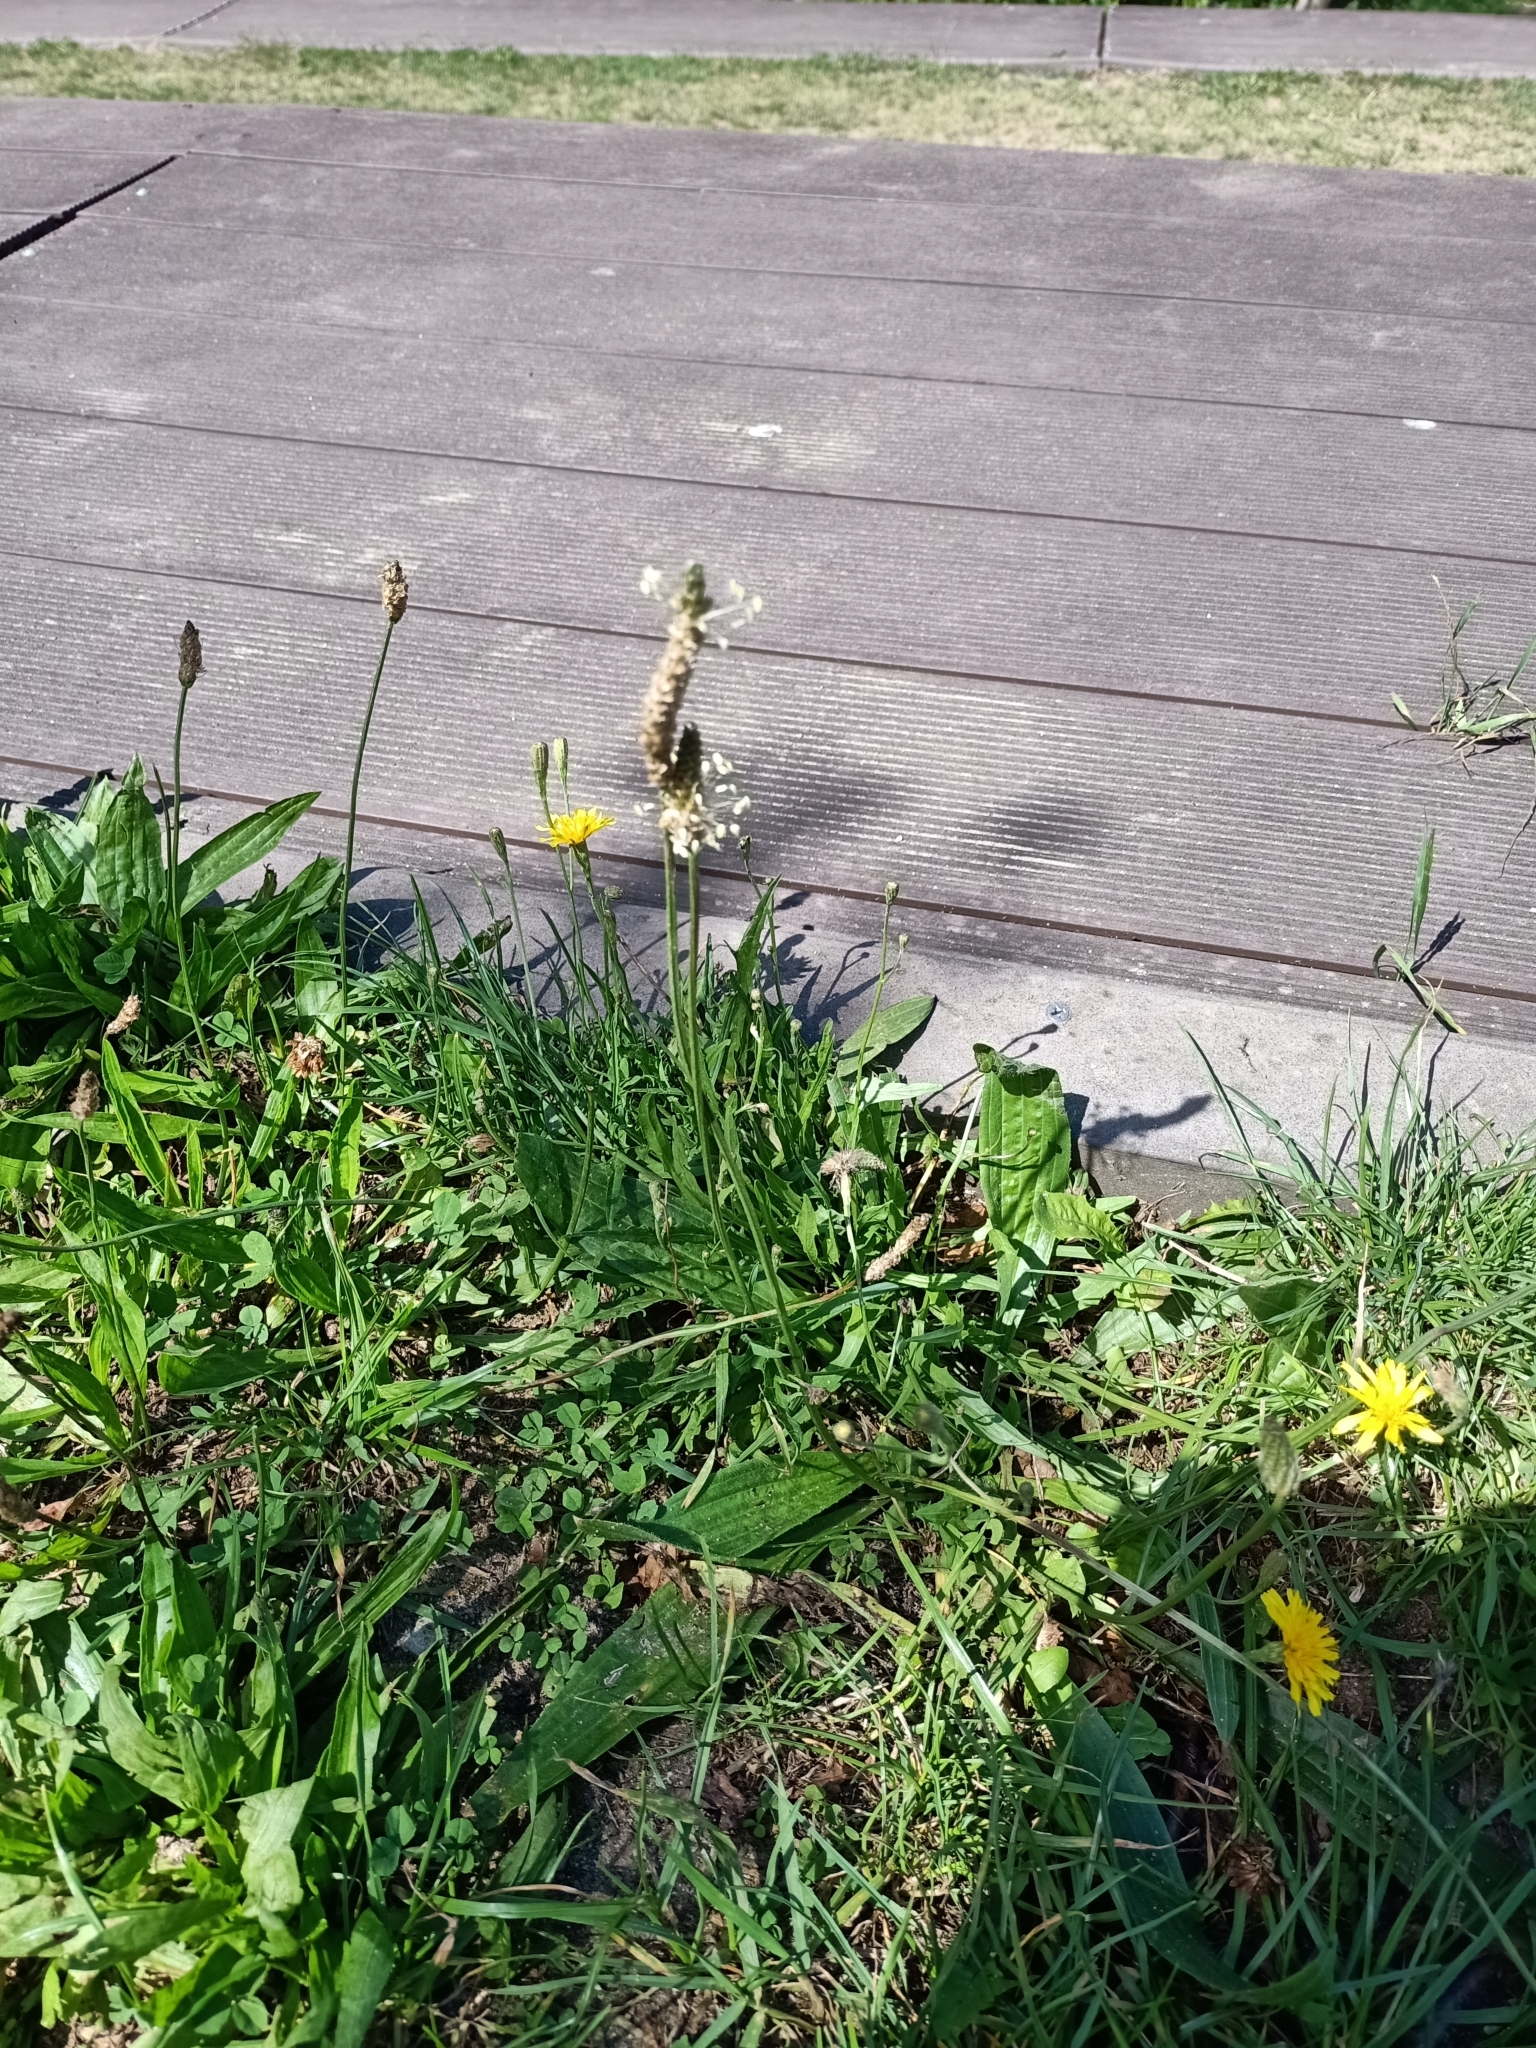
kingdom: Plantae
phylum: Tracheophyta
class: Magnoliopsida
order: Lamiales
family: Plantaginaceae
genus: Plantago
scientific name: Plantago lanceolata
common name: Ribwort plantain
